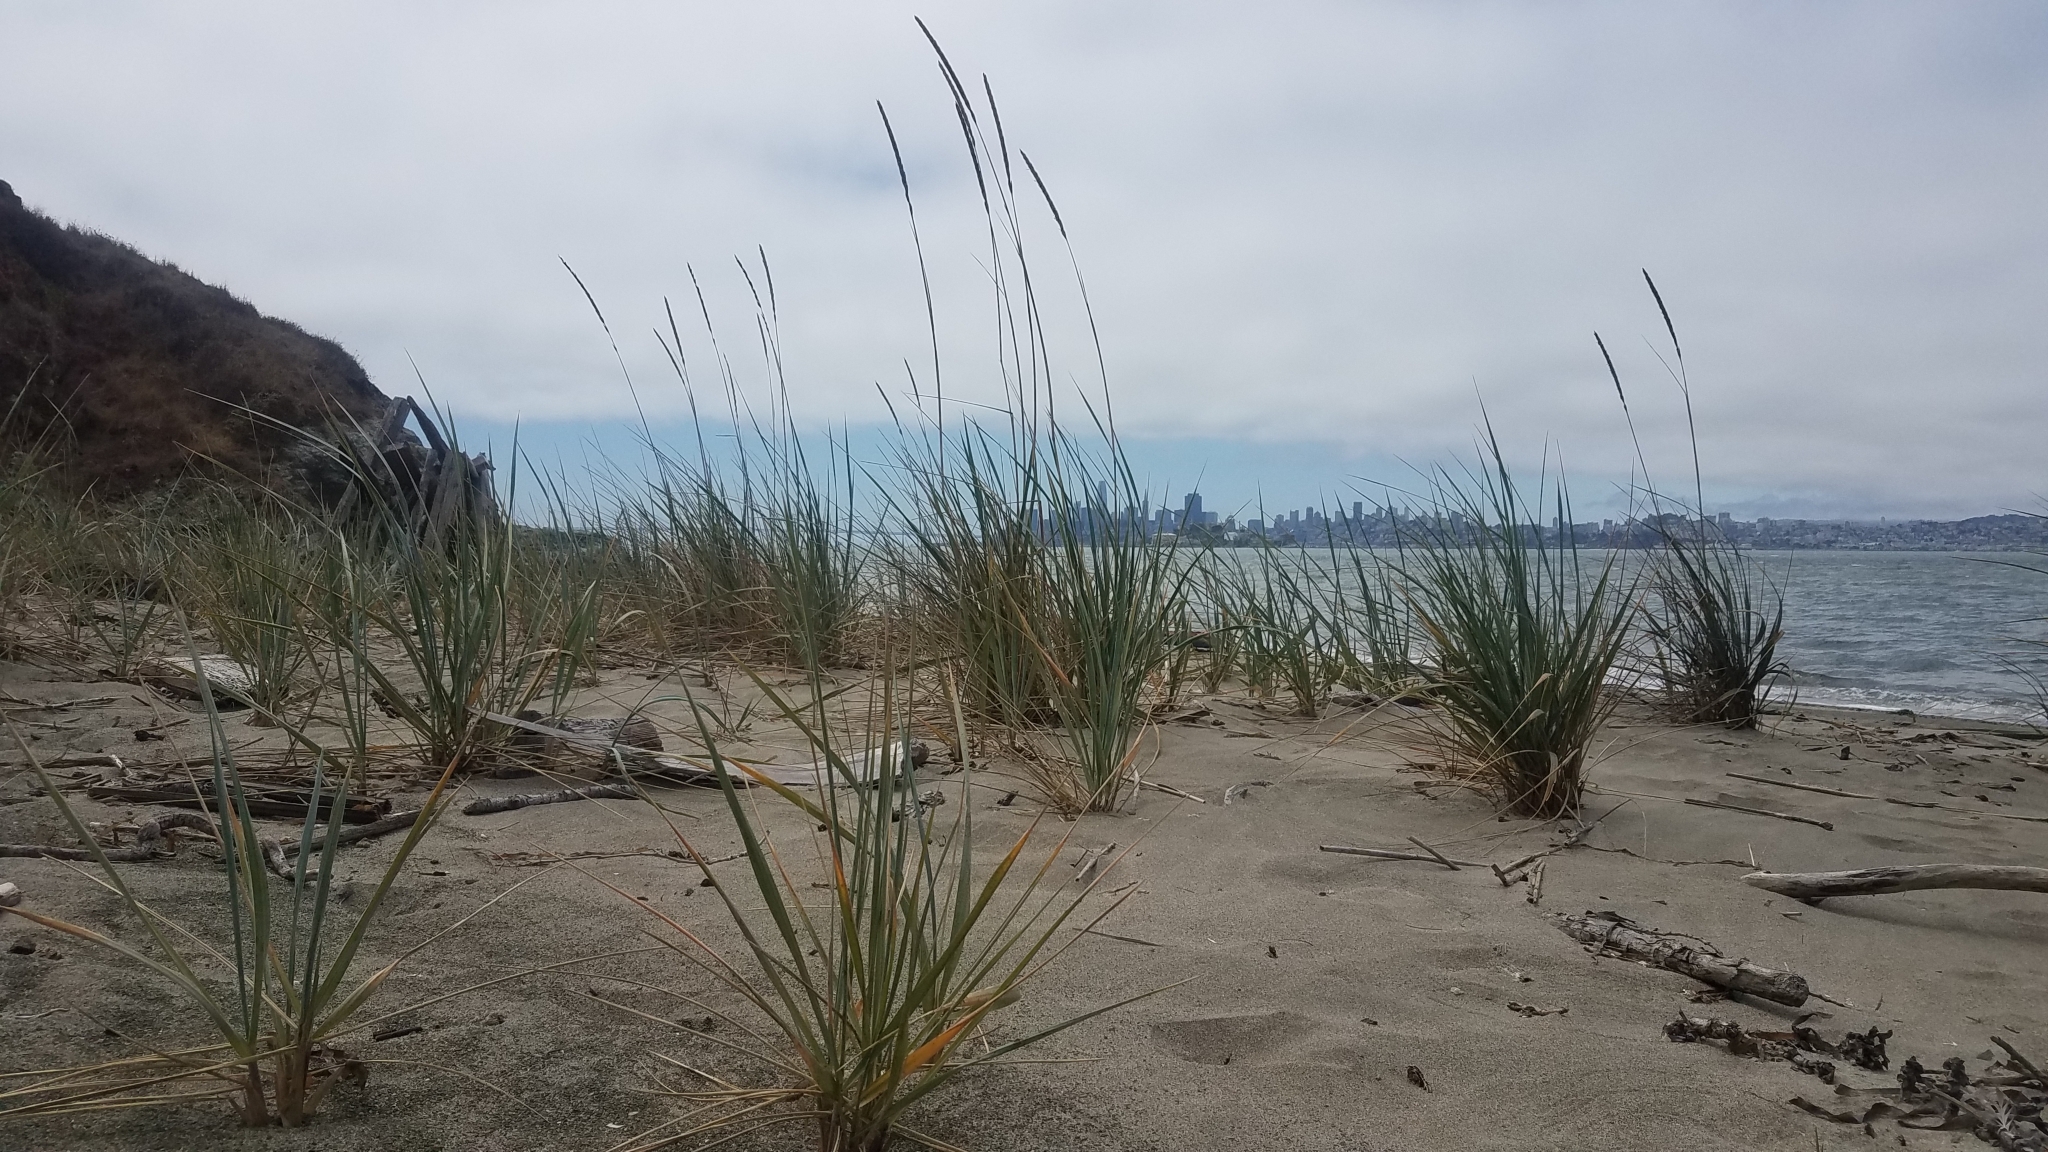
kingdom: Plantae
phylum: Tracheophyta
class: Liliopsida
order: Poales
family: Poaceae
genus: Leymus
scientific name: Leymus mollis
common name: American dune grass
